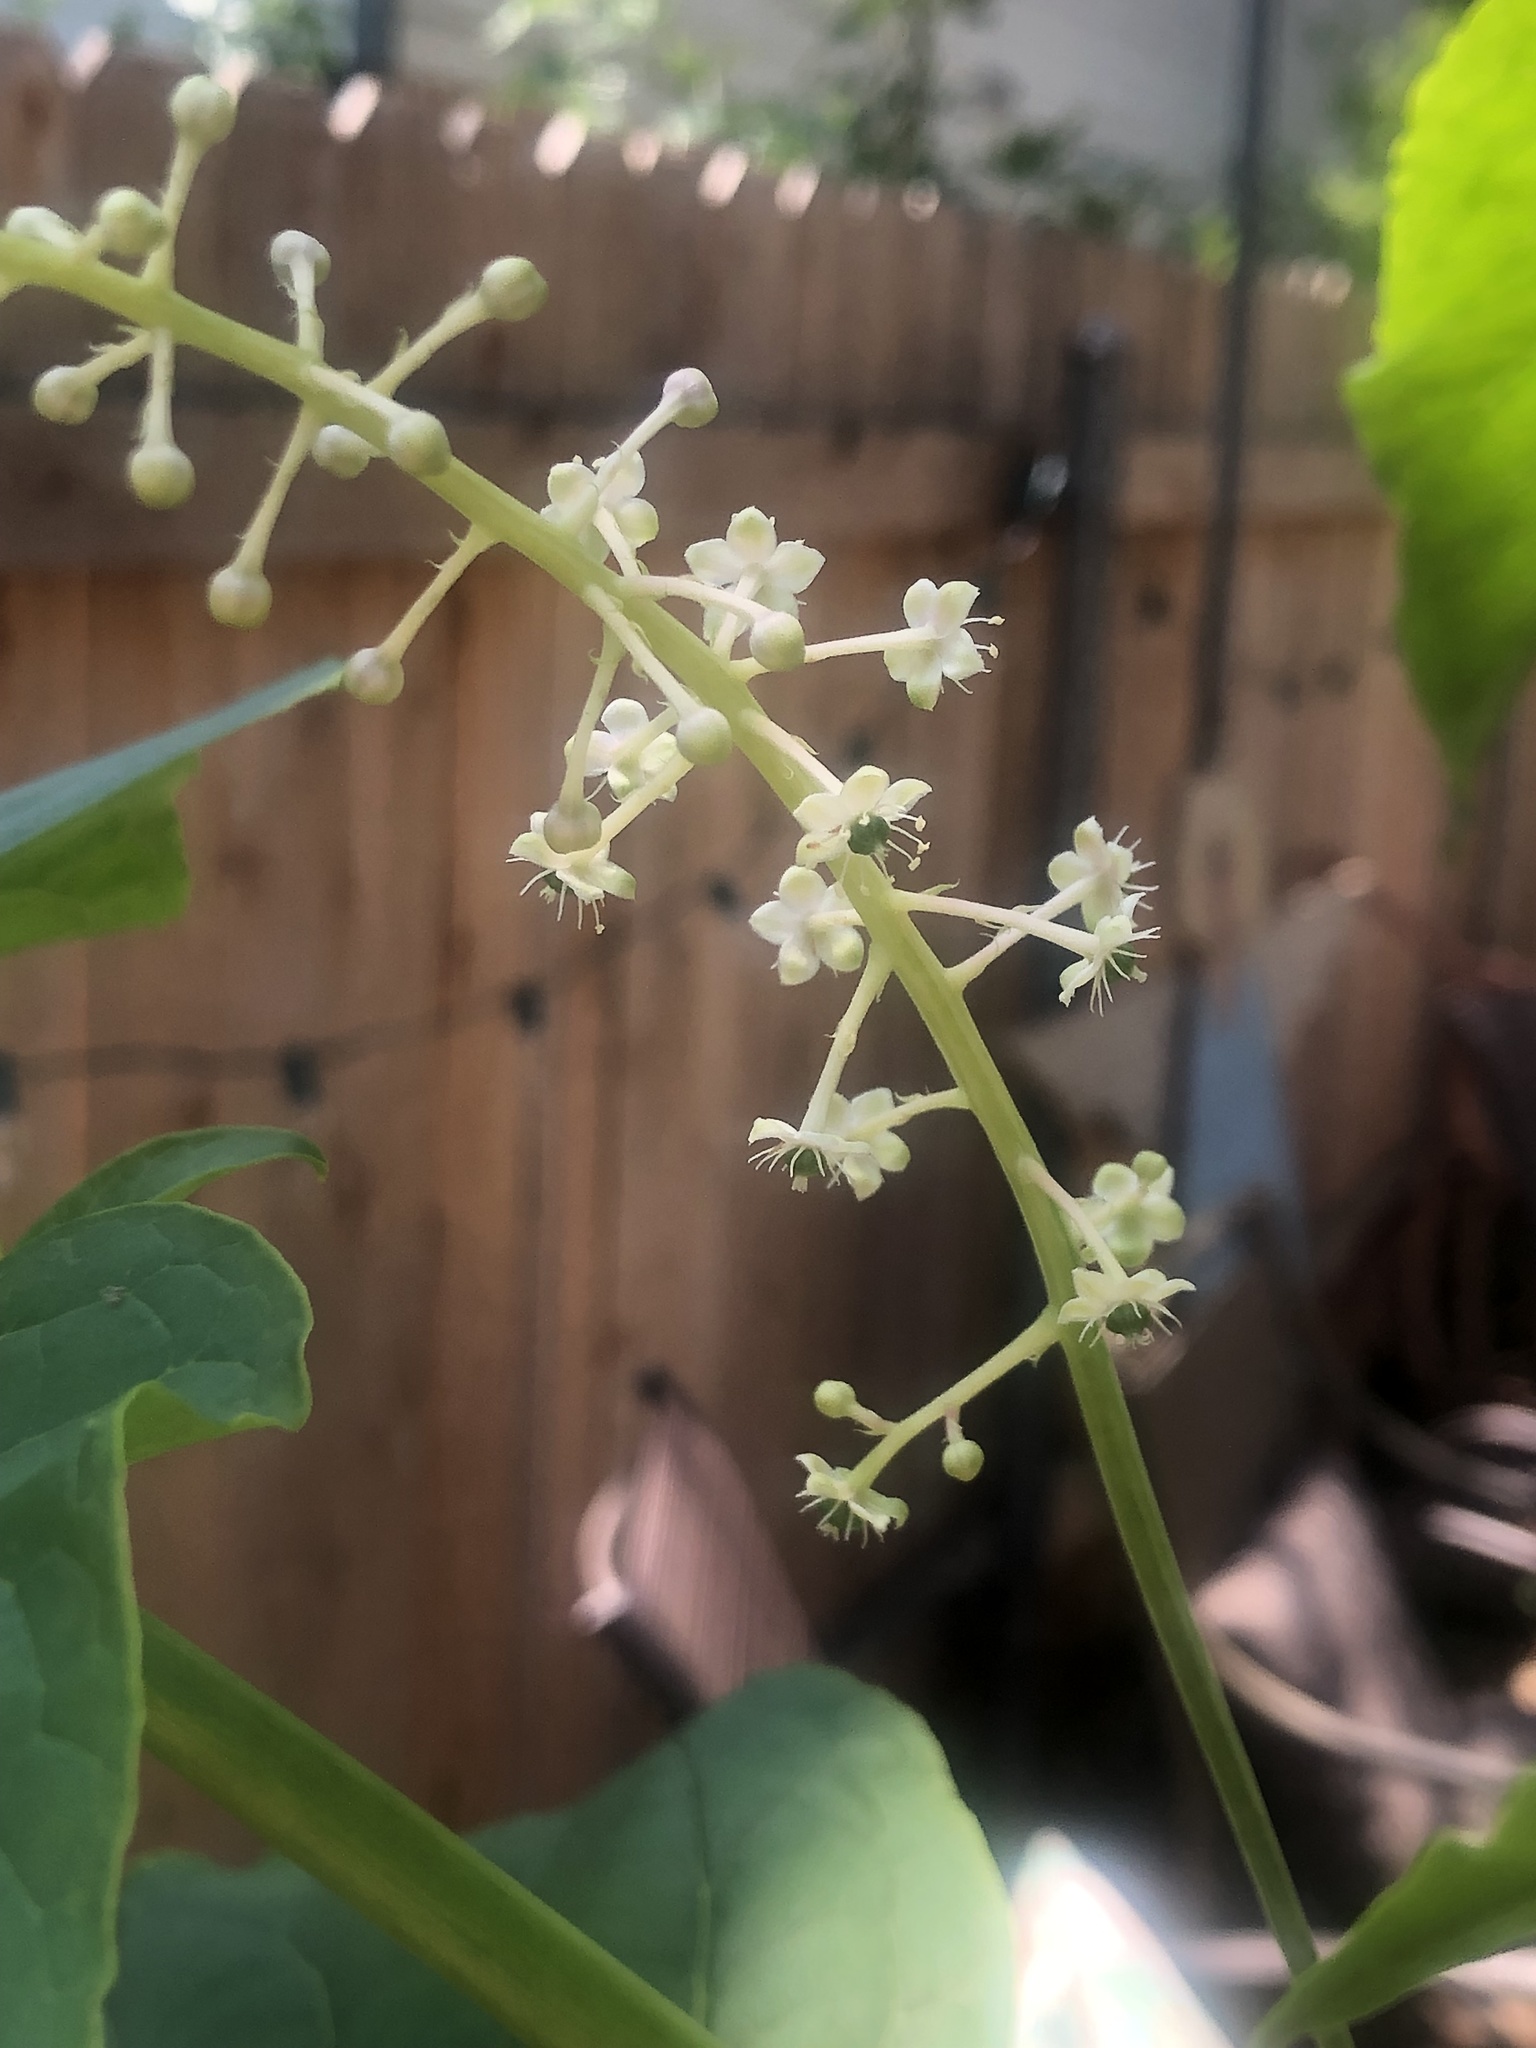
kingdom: Plantae
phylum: Tracheophyta
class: Magnoliopsida
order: Caryophyllales
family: Phytolaccaceae
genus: Phytolacca
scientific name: Phytolacca americana
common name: American pokeweed
